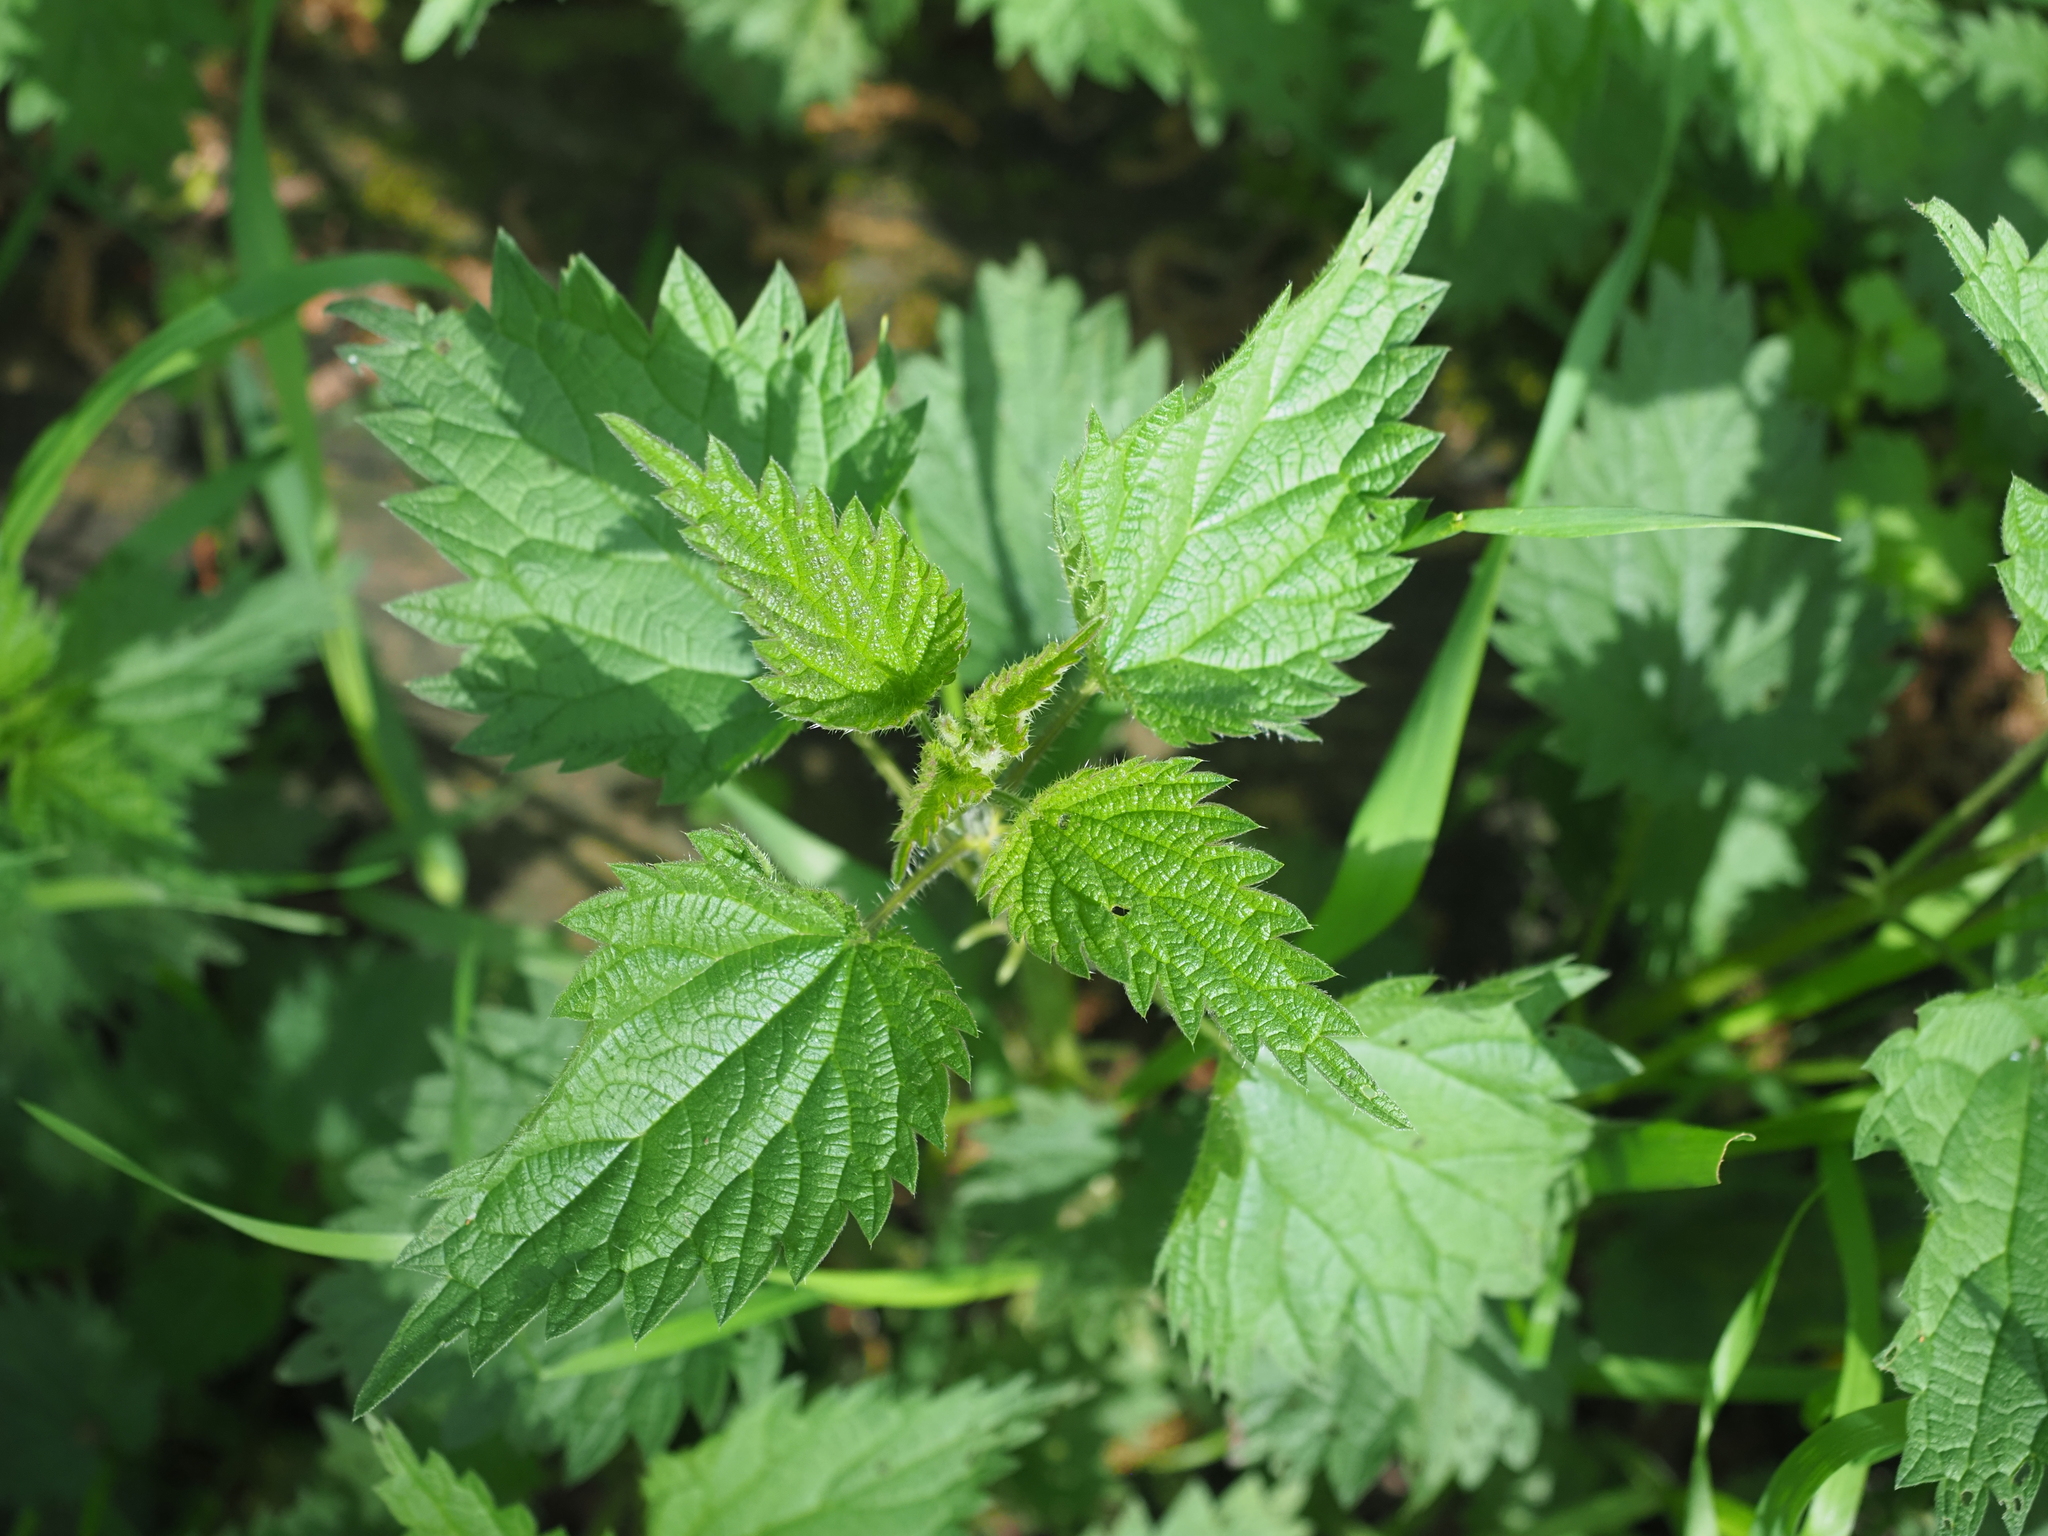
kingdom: Plantae
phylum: Tracheophyta
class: Magnoliopsida
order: Rosales
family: Urticaceae
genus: Urtica
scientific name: Urtica dioica
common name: Common nettle
